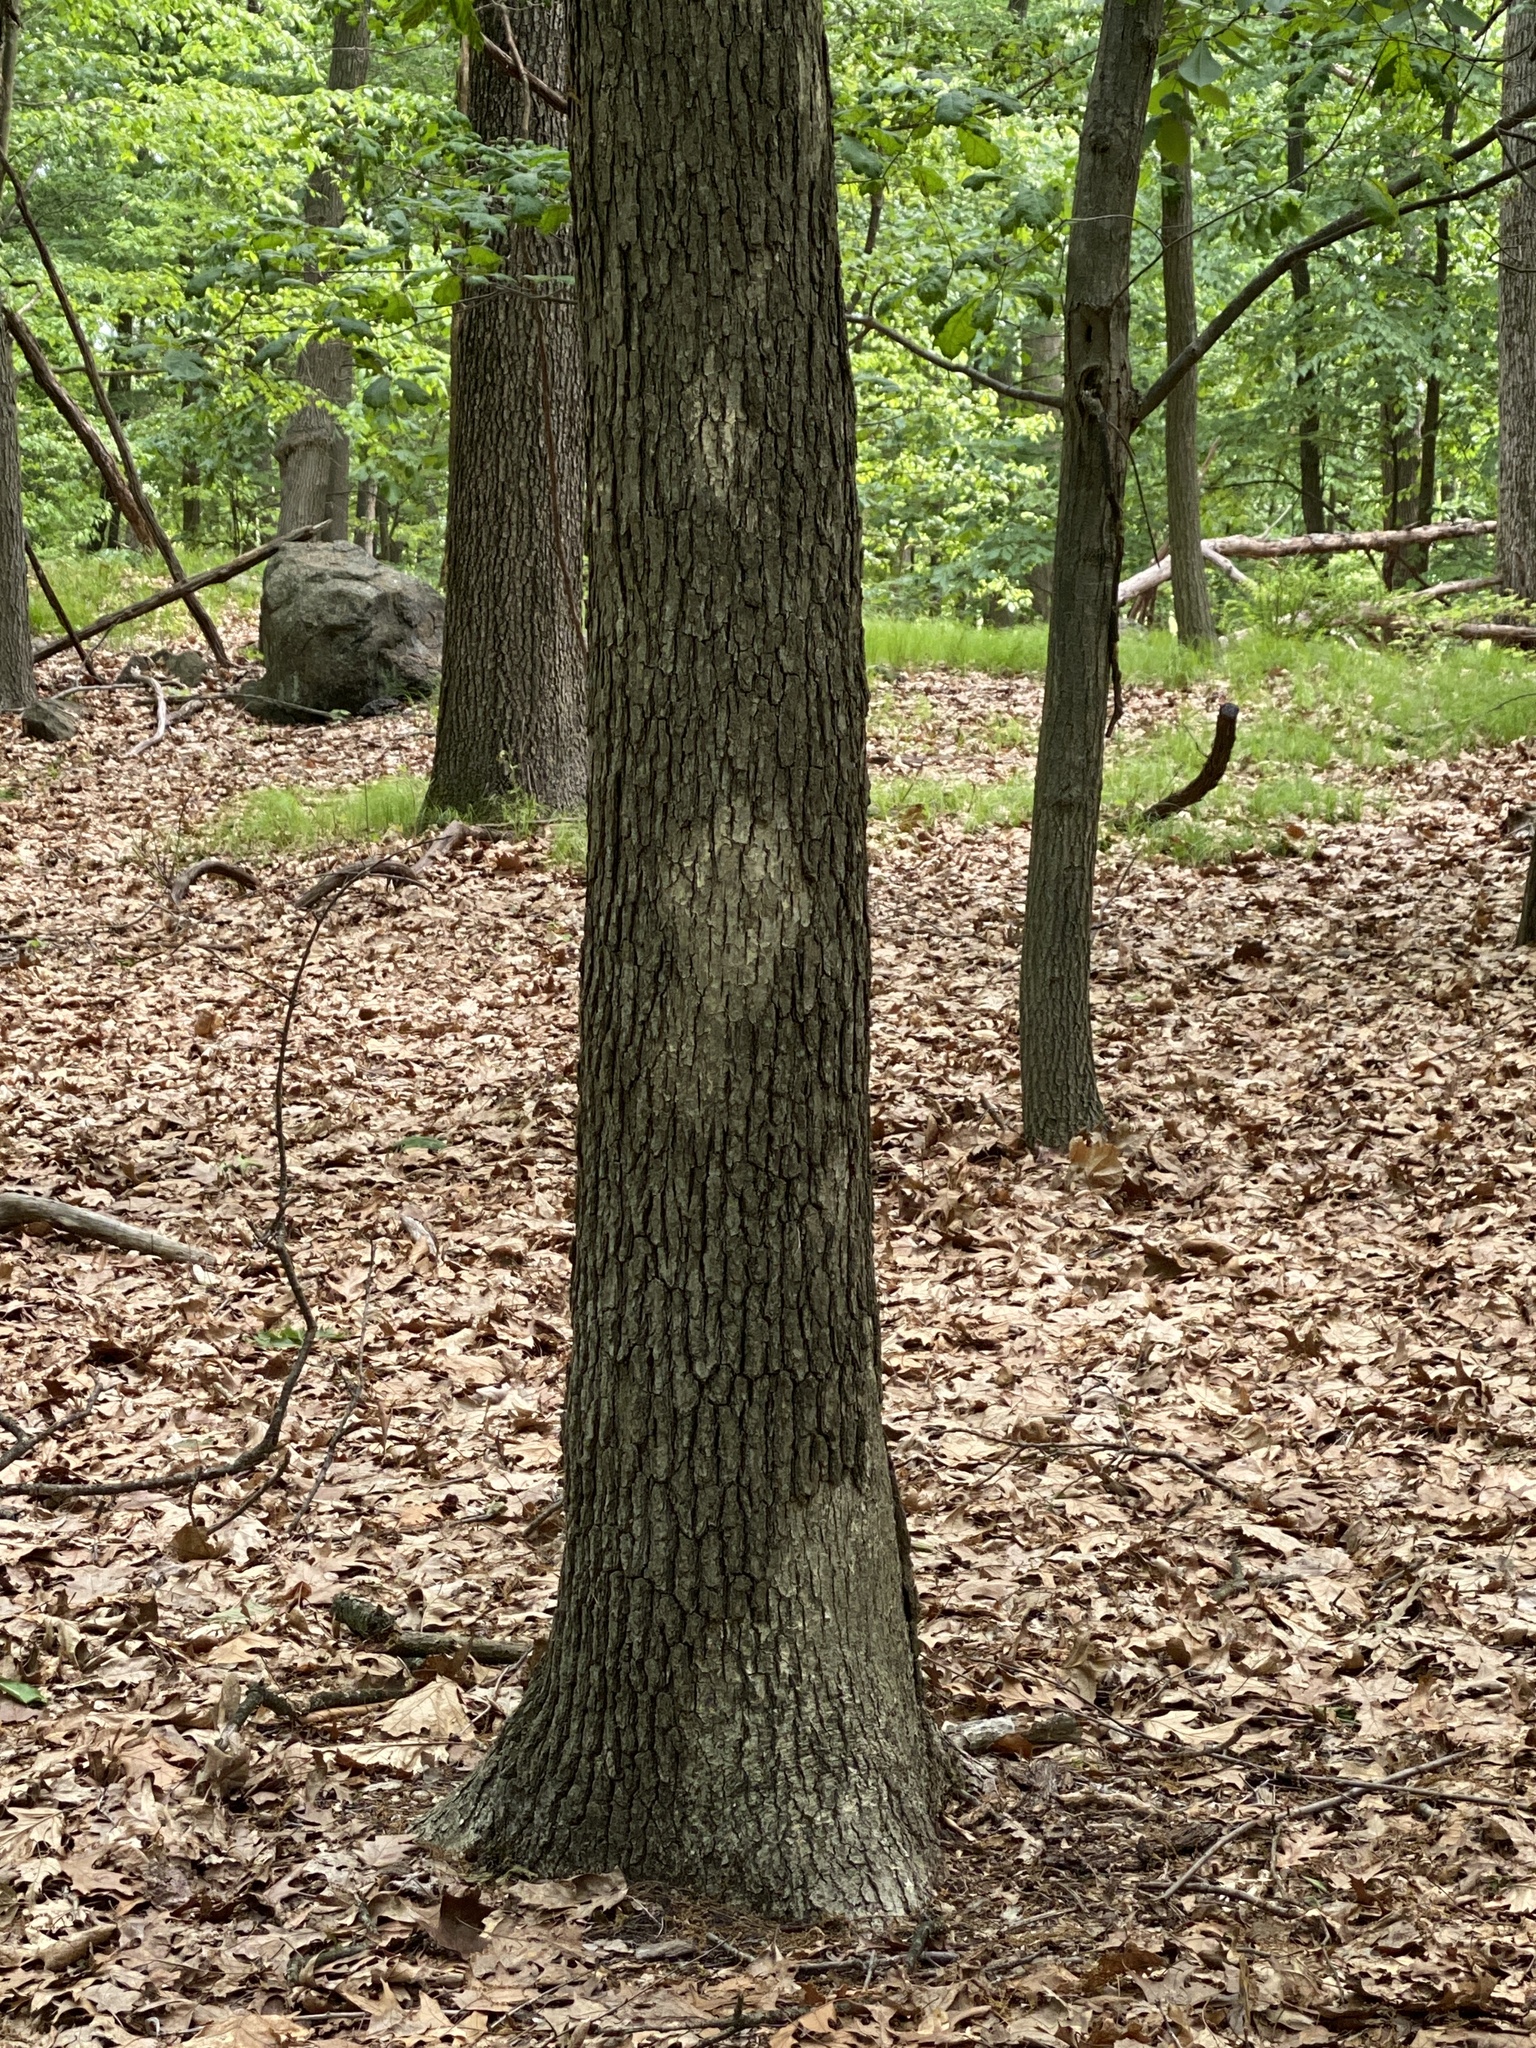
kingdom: Fungi
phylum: Basidiomycota
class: Agaricomycetes
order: Russulales
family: Stereaceae
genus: Acanthophysium
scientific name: Acanthophysium oakesii
